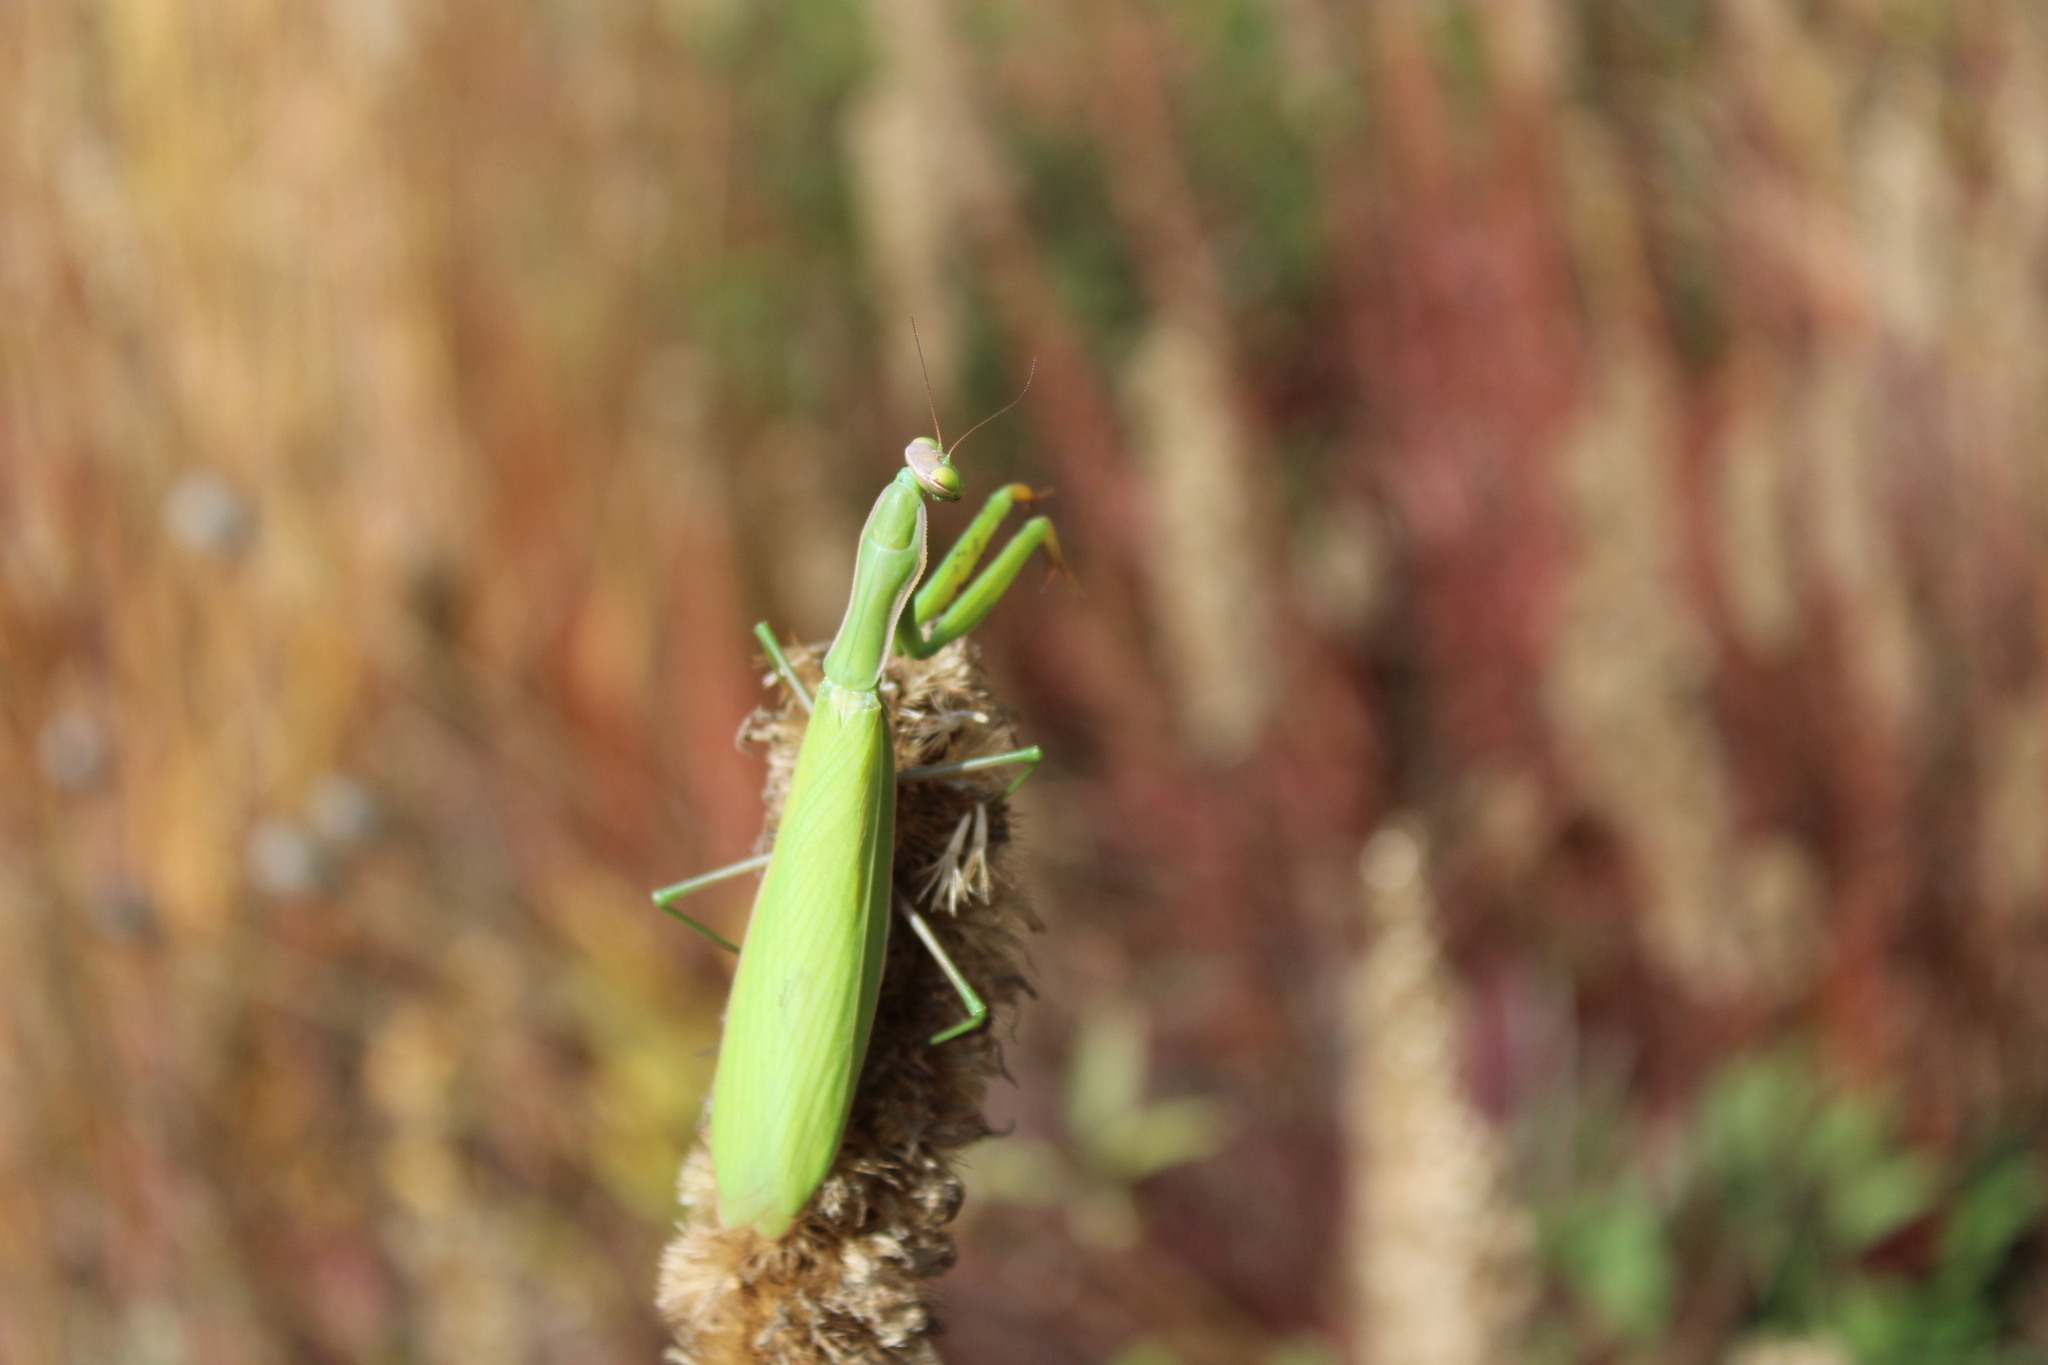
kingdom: Animalia
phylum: Arthropoda
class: Insecta
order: Mantodea
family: Mantidae
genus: Mantis
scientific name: Mantis religiosa
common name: Praying mantis
